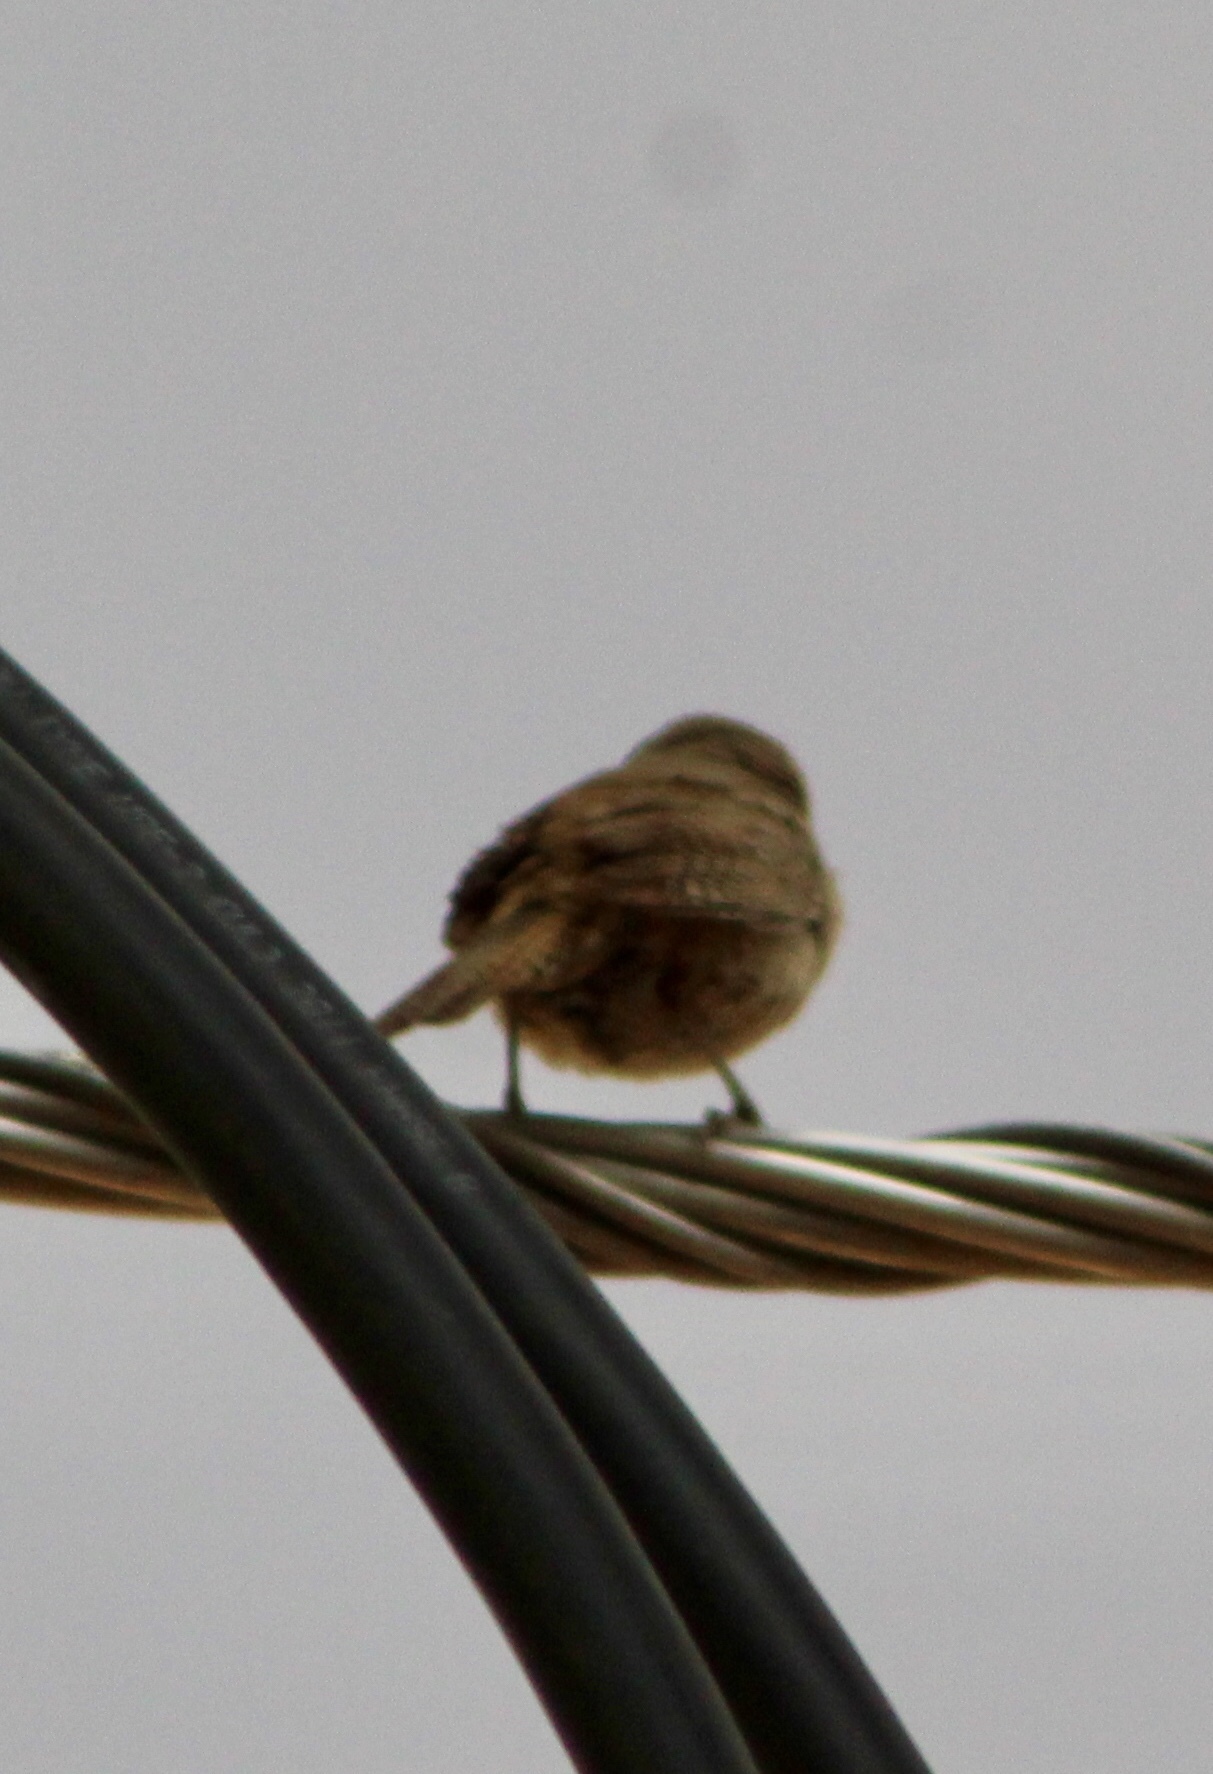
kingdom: Animalia
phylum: Chordata
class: Aves
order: Passeriformes
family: Troglodytidae
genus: Troglodytes
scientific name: Troglodytes aedon
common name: House wren
